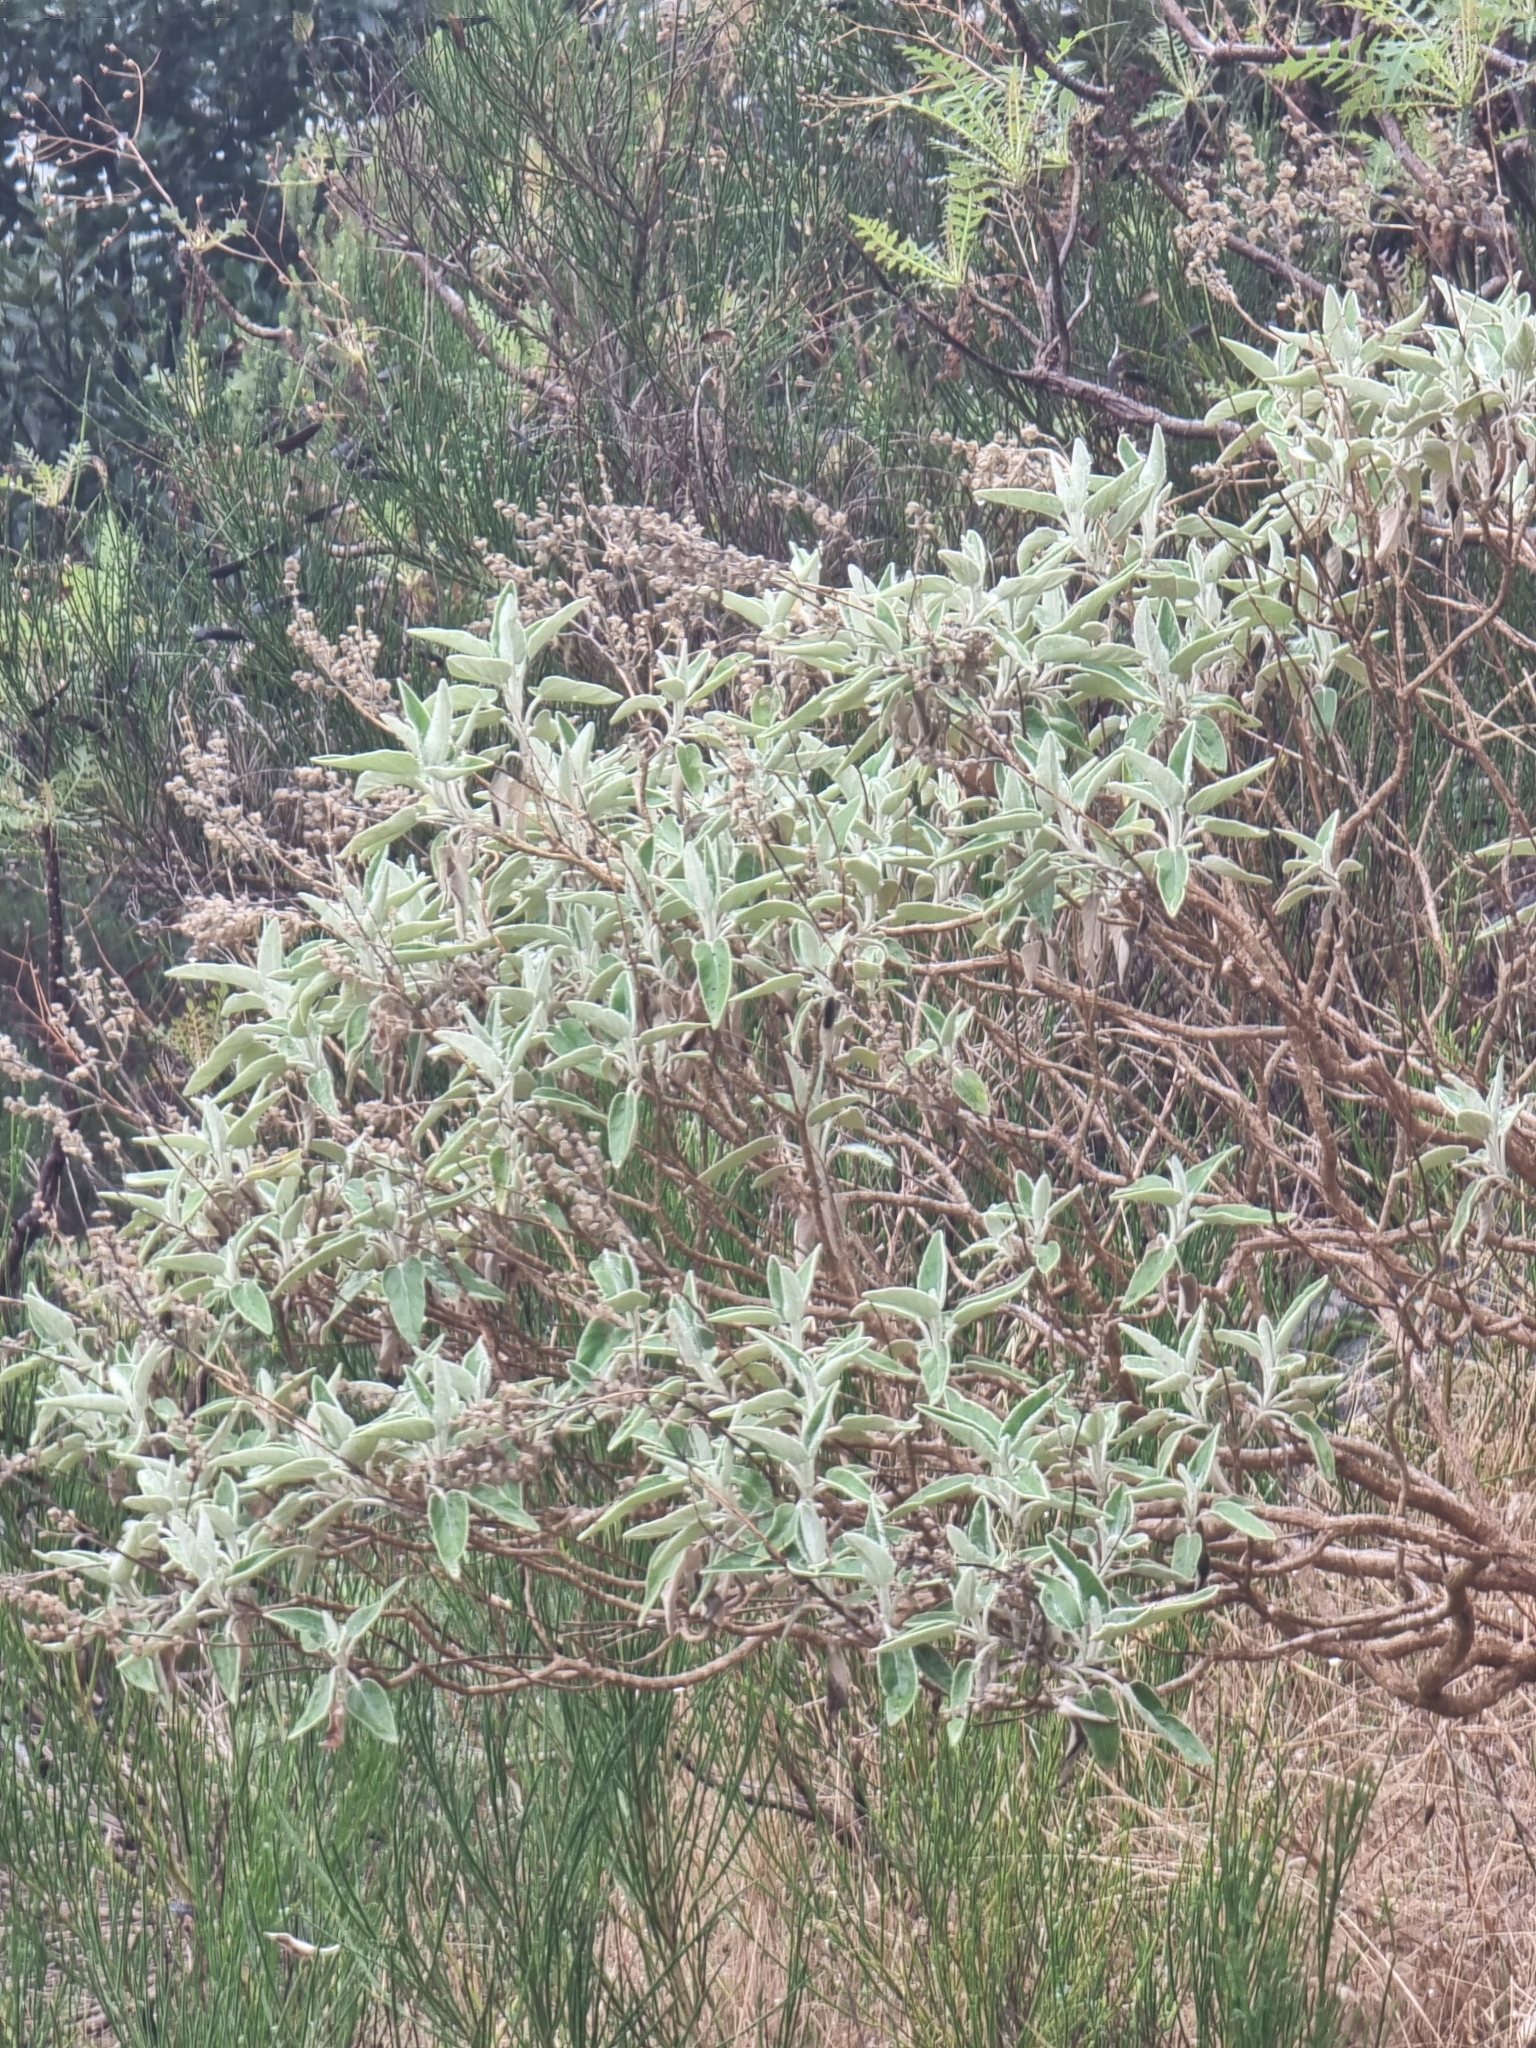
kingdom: Plantae
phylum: Tracheophyta
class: Magnoliopsida
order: Lamiales
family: Lamiaceae
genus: Sideritis
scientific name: Sideritis candicans
